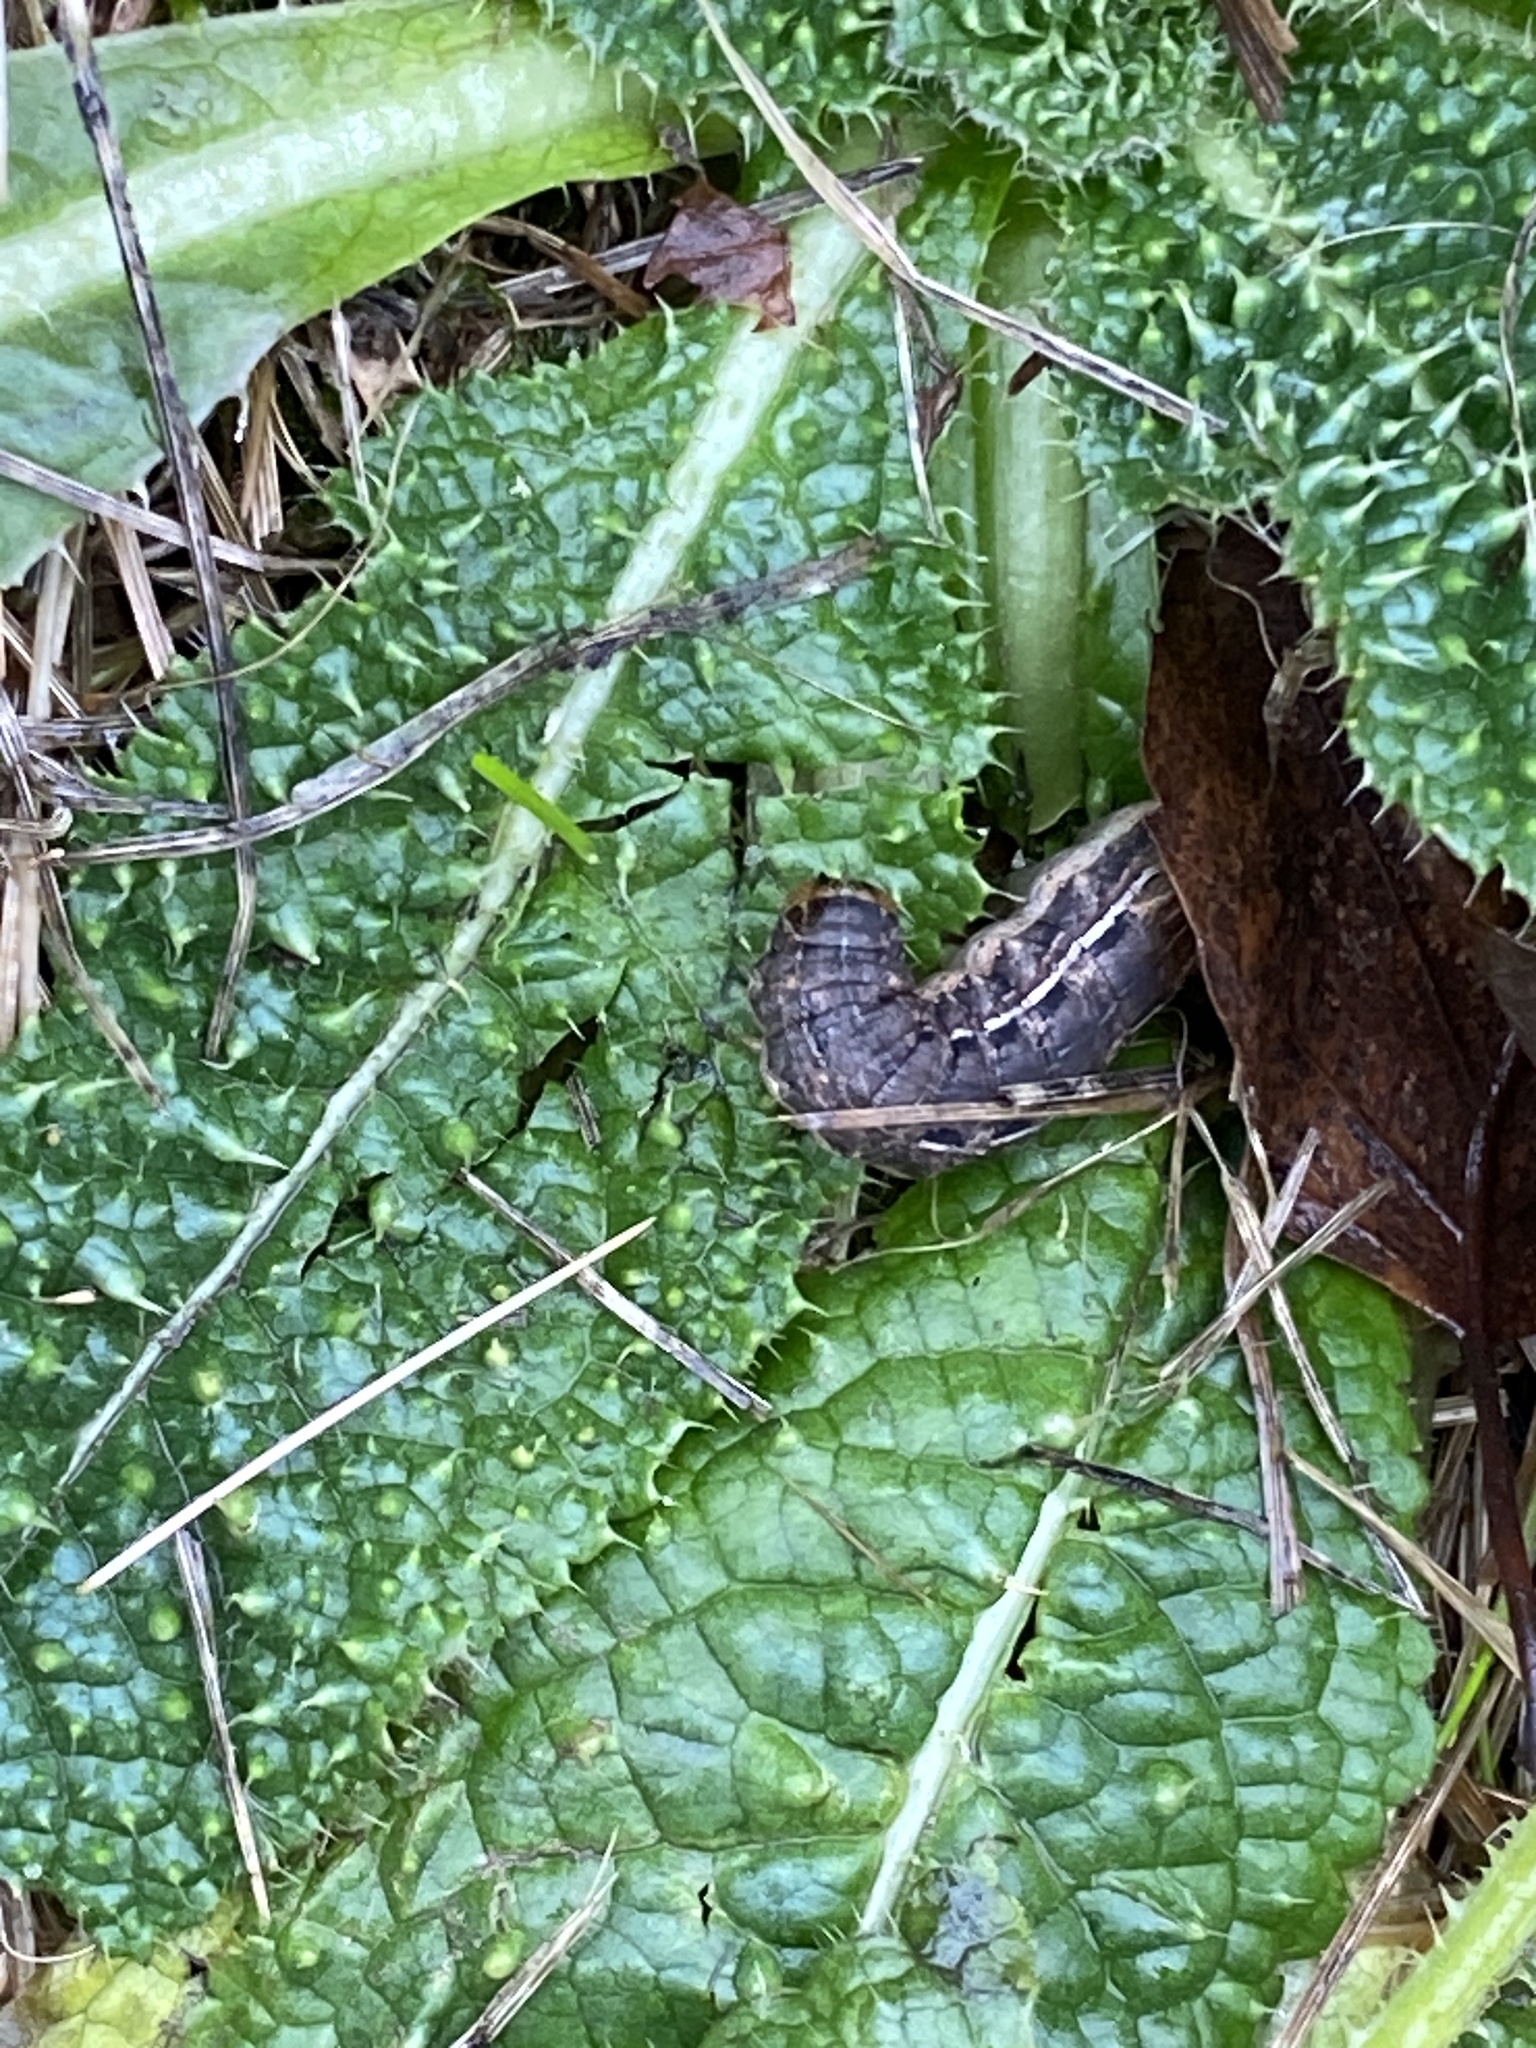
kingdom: Animalia
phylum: Arthropoda
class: Insecta
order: Lepidoptera
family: Noctuidae
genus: Noctua
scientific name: Noctua pronuba
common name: Large yellow underwing
